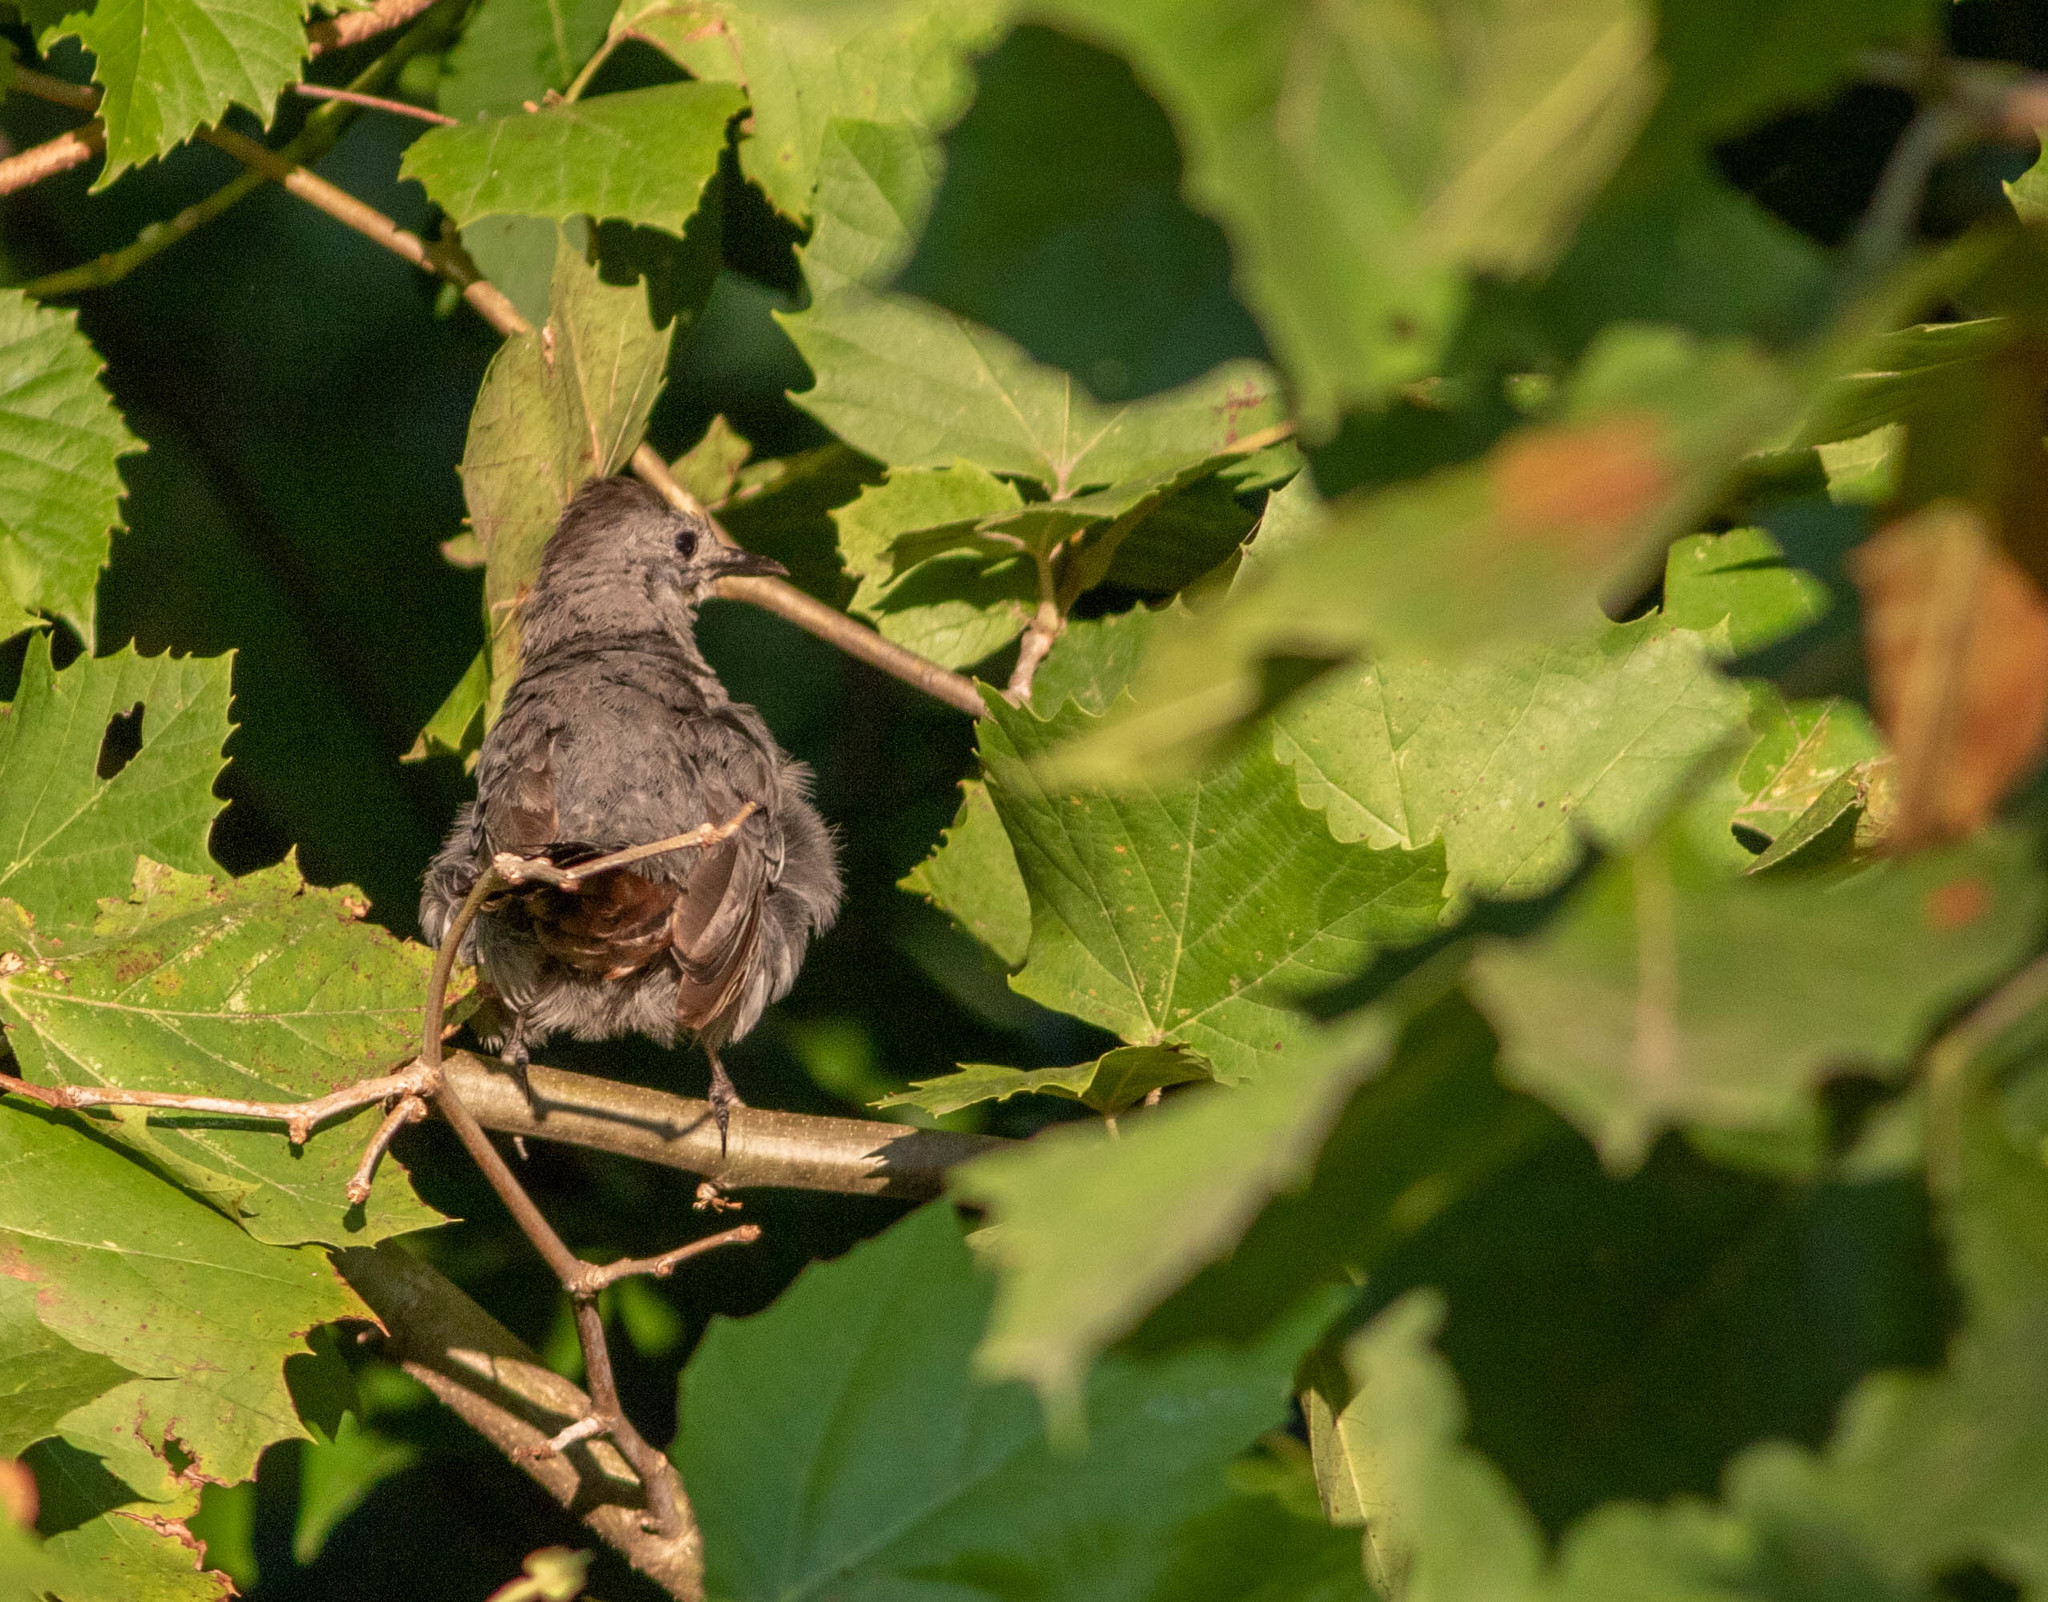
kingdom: Animalia
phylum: Chordata
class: Aves
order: Passeriformes
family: Mimidae
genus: Dumetella
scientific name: Dumetella carolinensis
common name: Gray catbird
